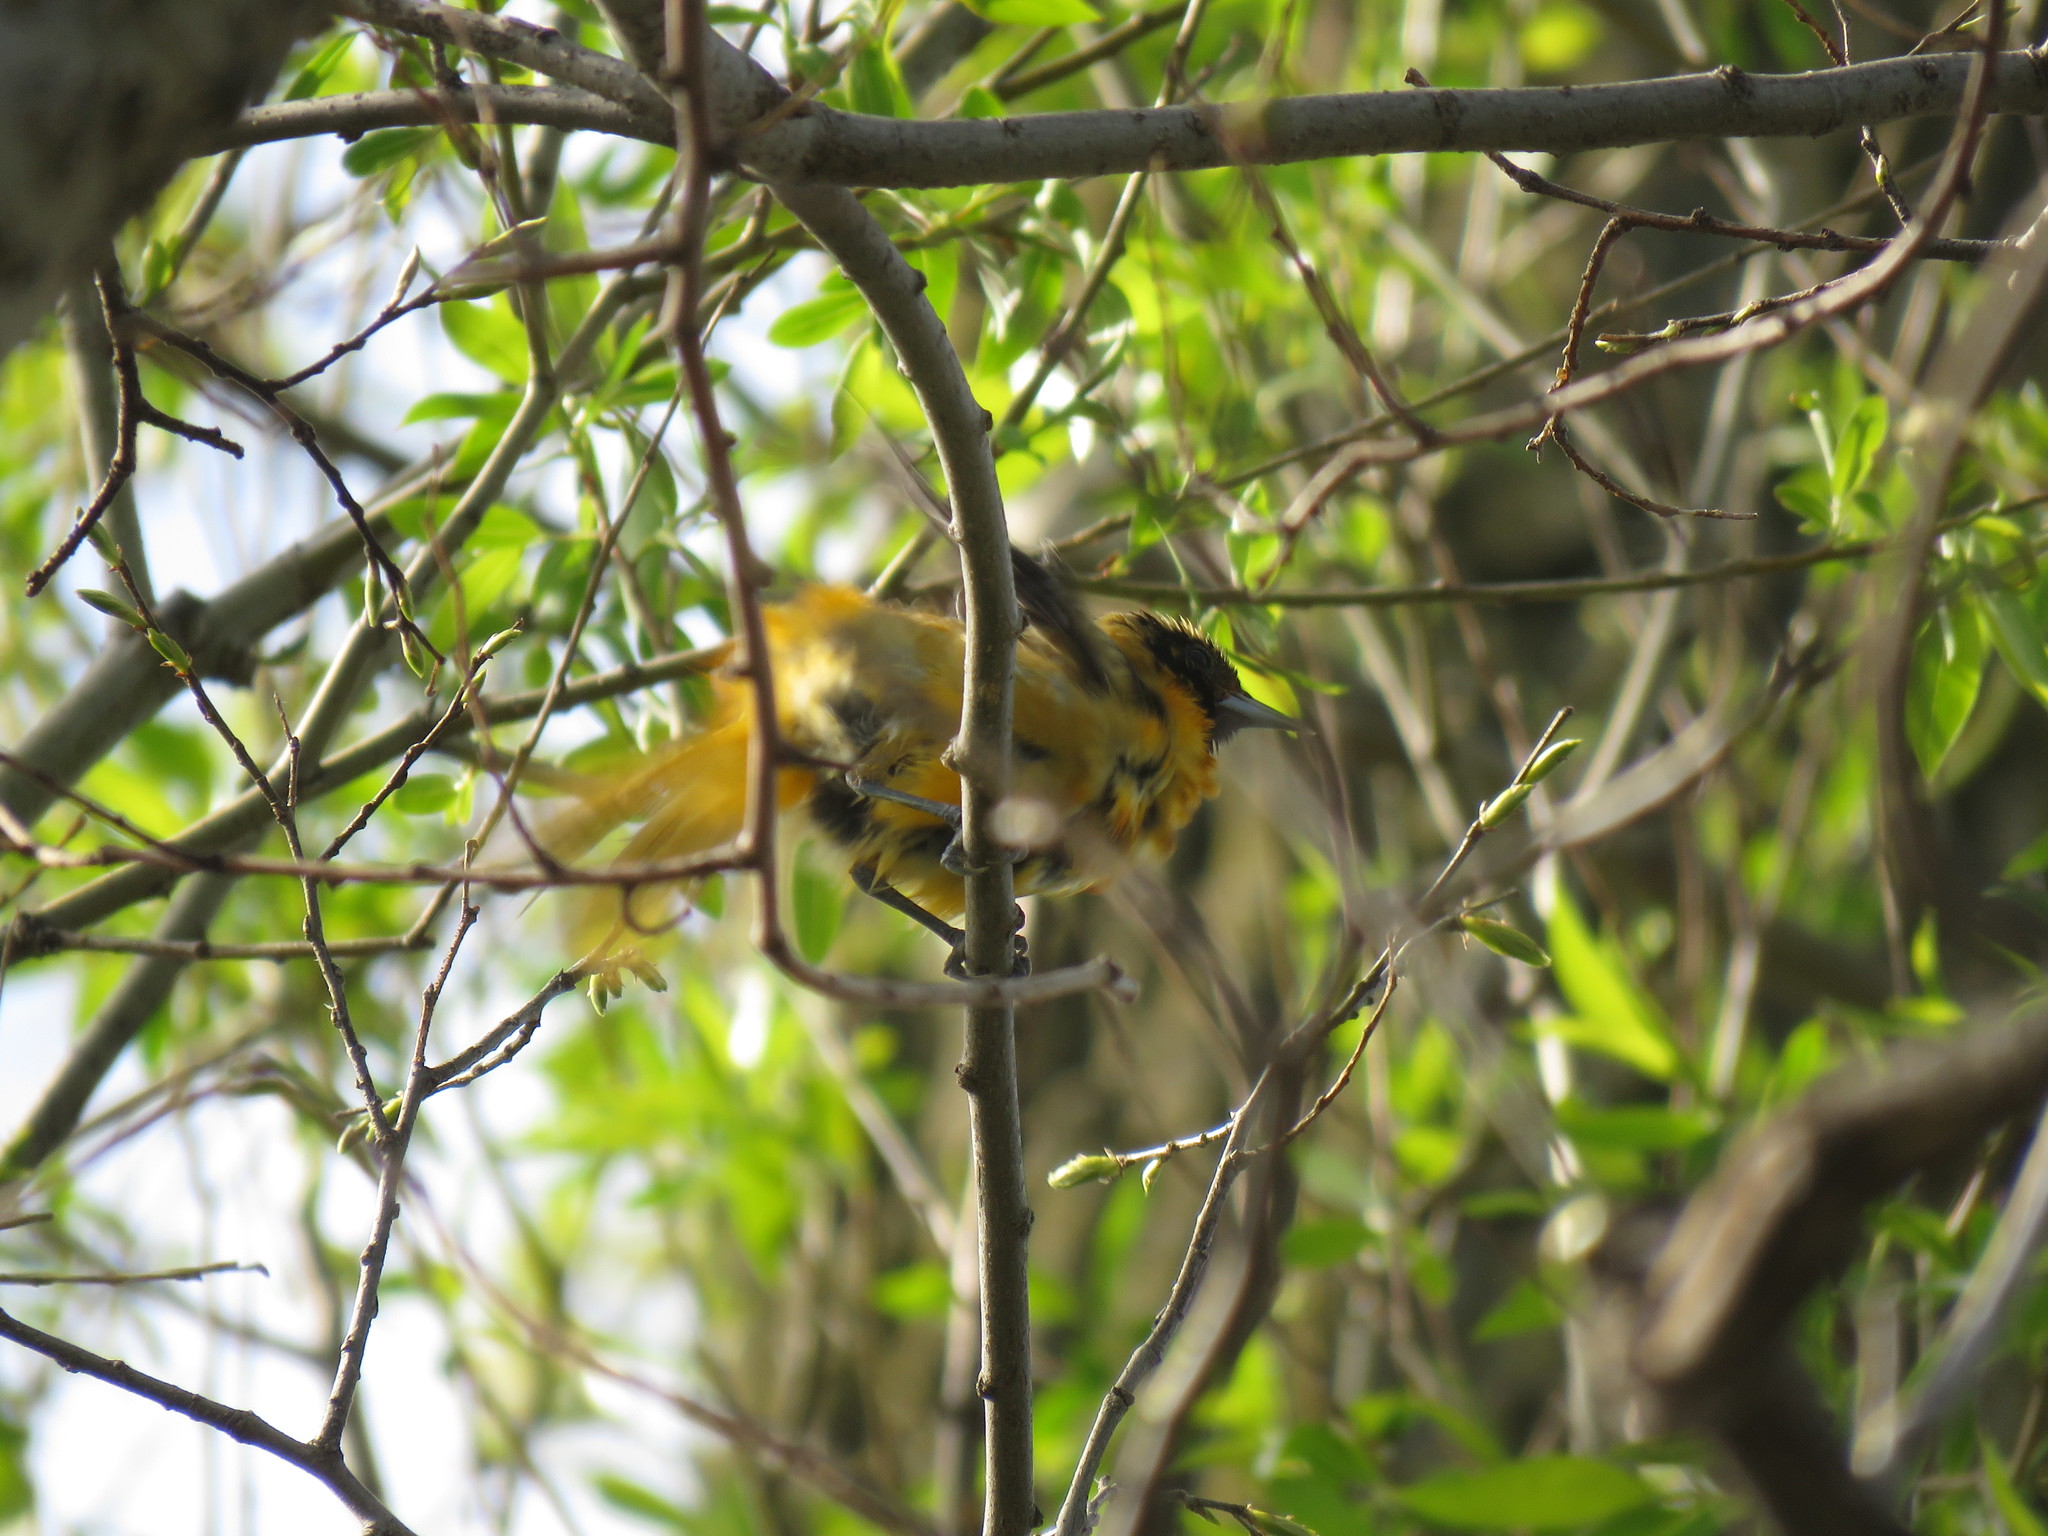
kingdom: Animalia
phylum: Chordata
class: Aves
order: Passeriformes
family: Icteridae
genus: Icterus
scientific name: Icterus galbula
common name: Baltimore oriole
